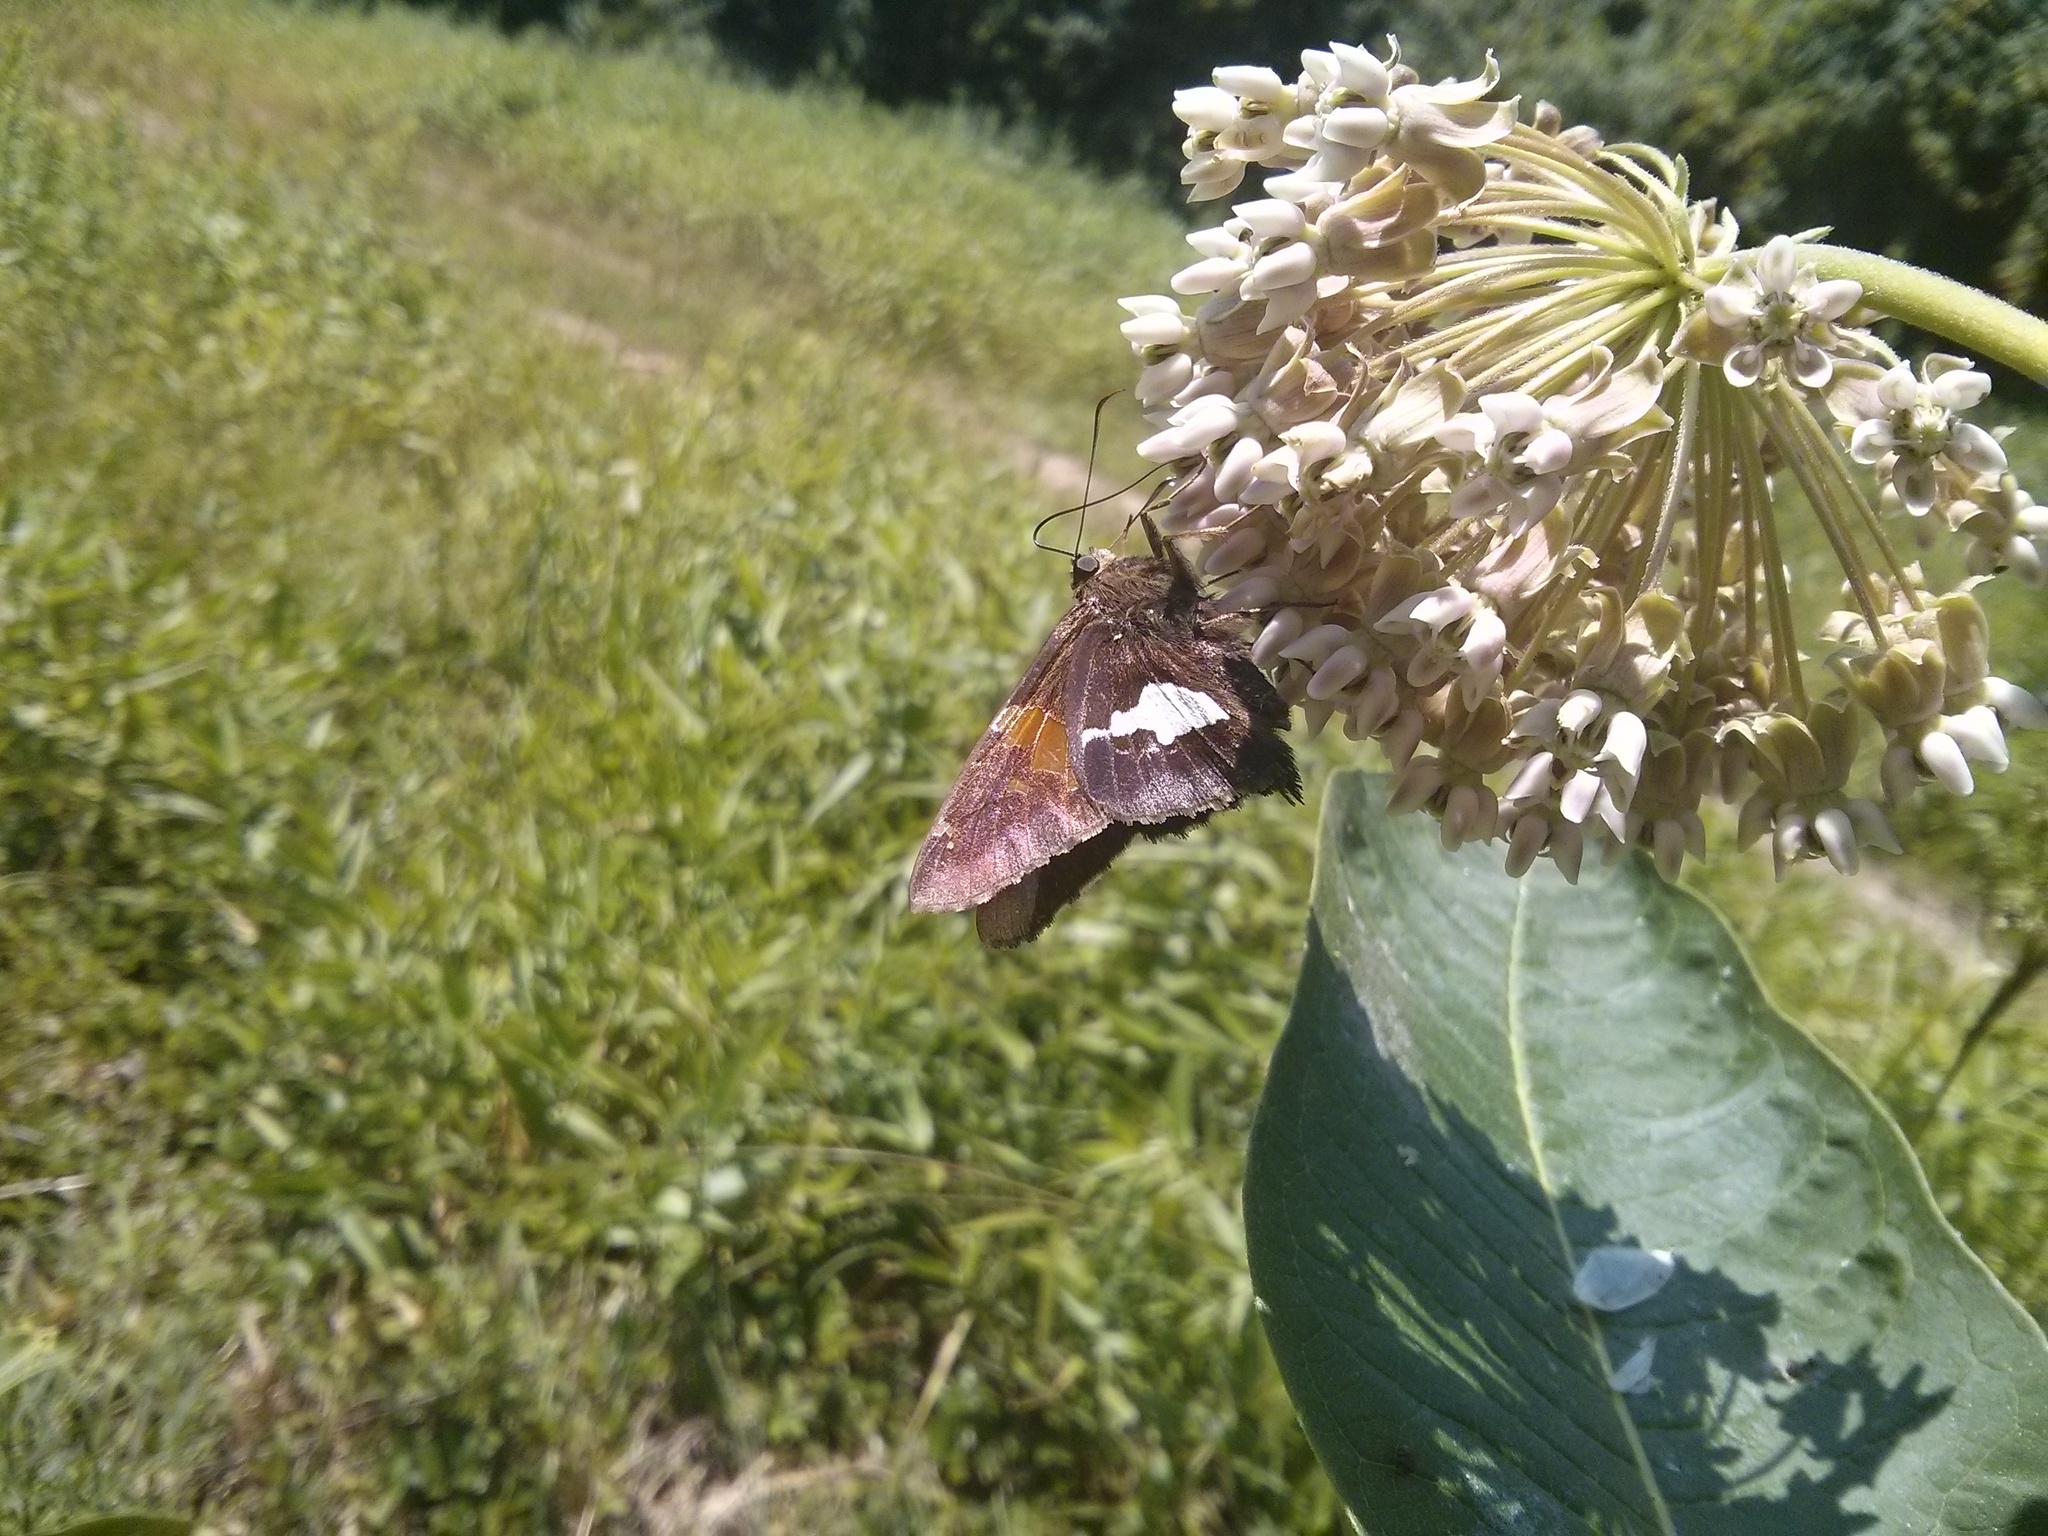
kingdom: Animalia
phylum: Arthropoda
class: Insecta
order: Lepidoptera
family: Hesperiidae
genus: Epargyreus
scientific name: Epargyreus clarus
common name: Silver-spotted skipper
